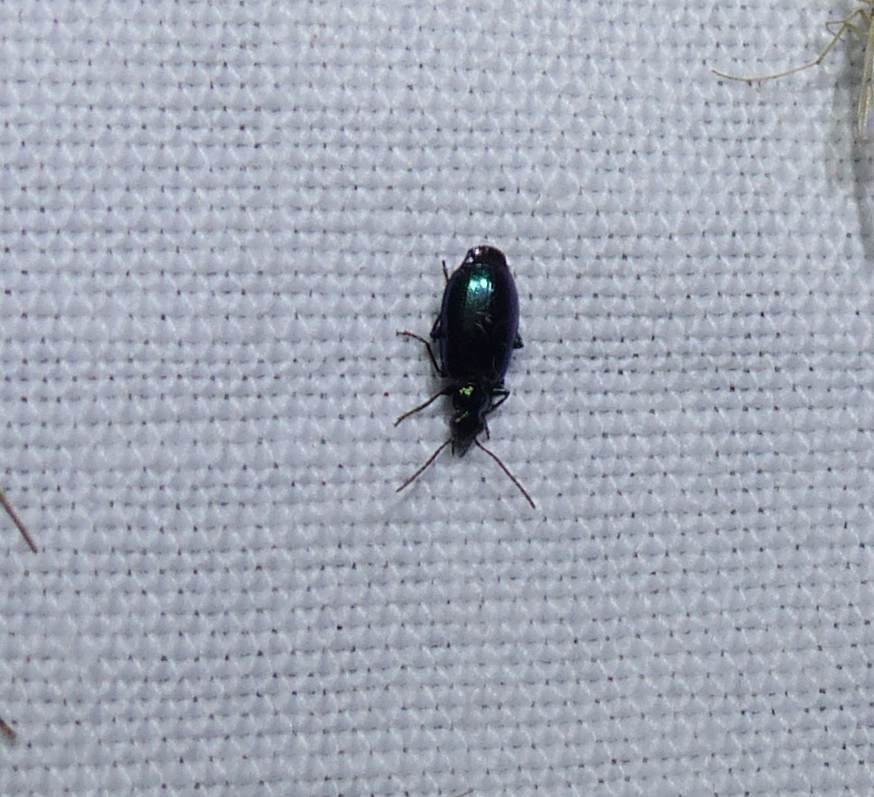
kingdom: Animalia
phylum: Arthropoda
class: Insecta
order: Coleoptera
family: Carabidae
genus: Lebia
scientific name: Lebia viridis
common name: Flower lebia beetle
